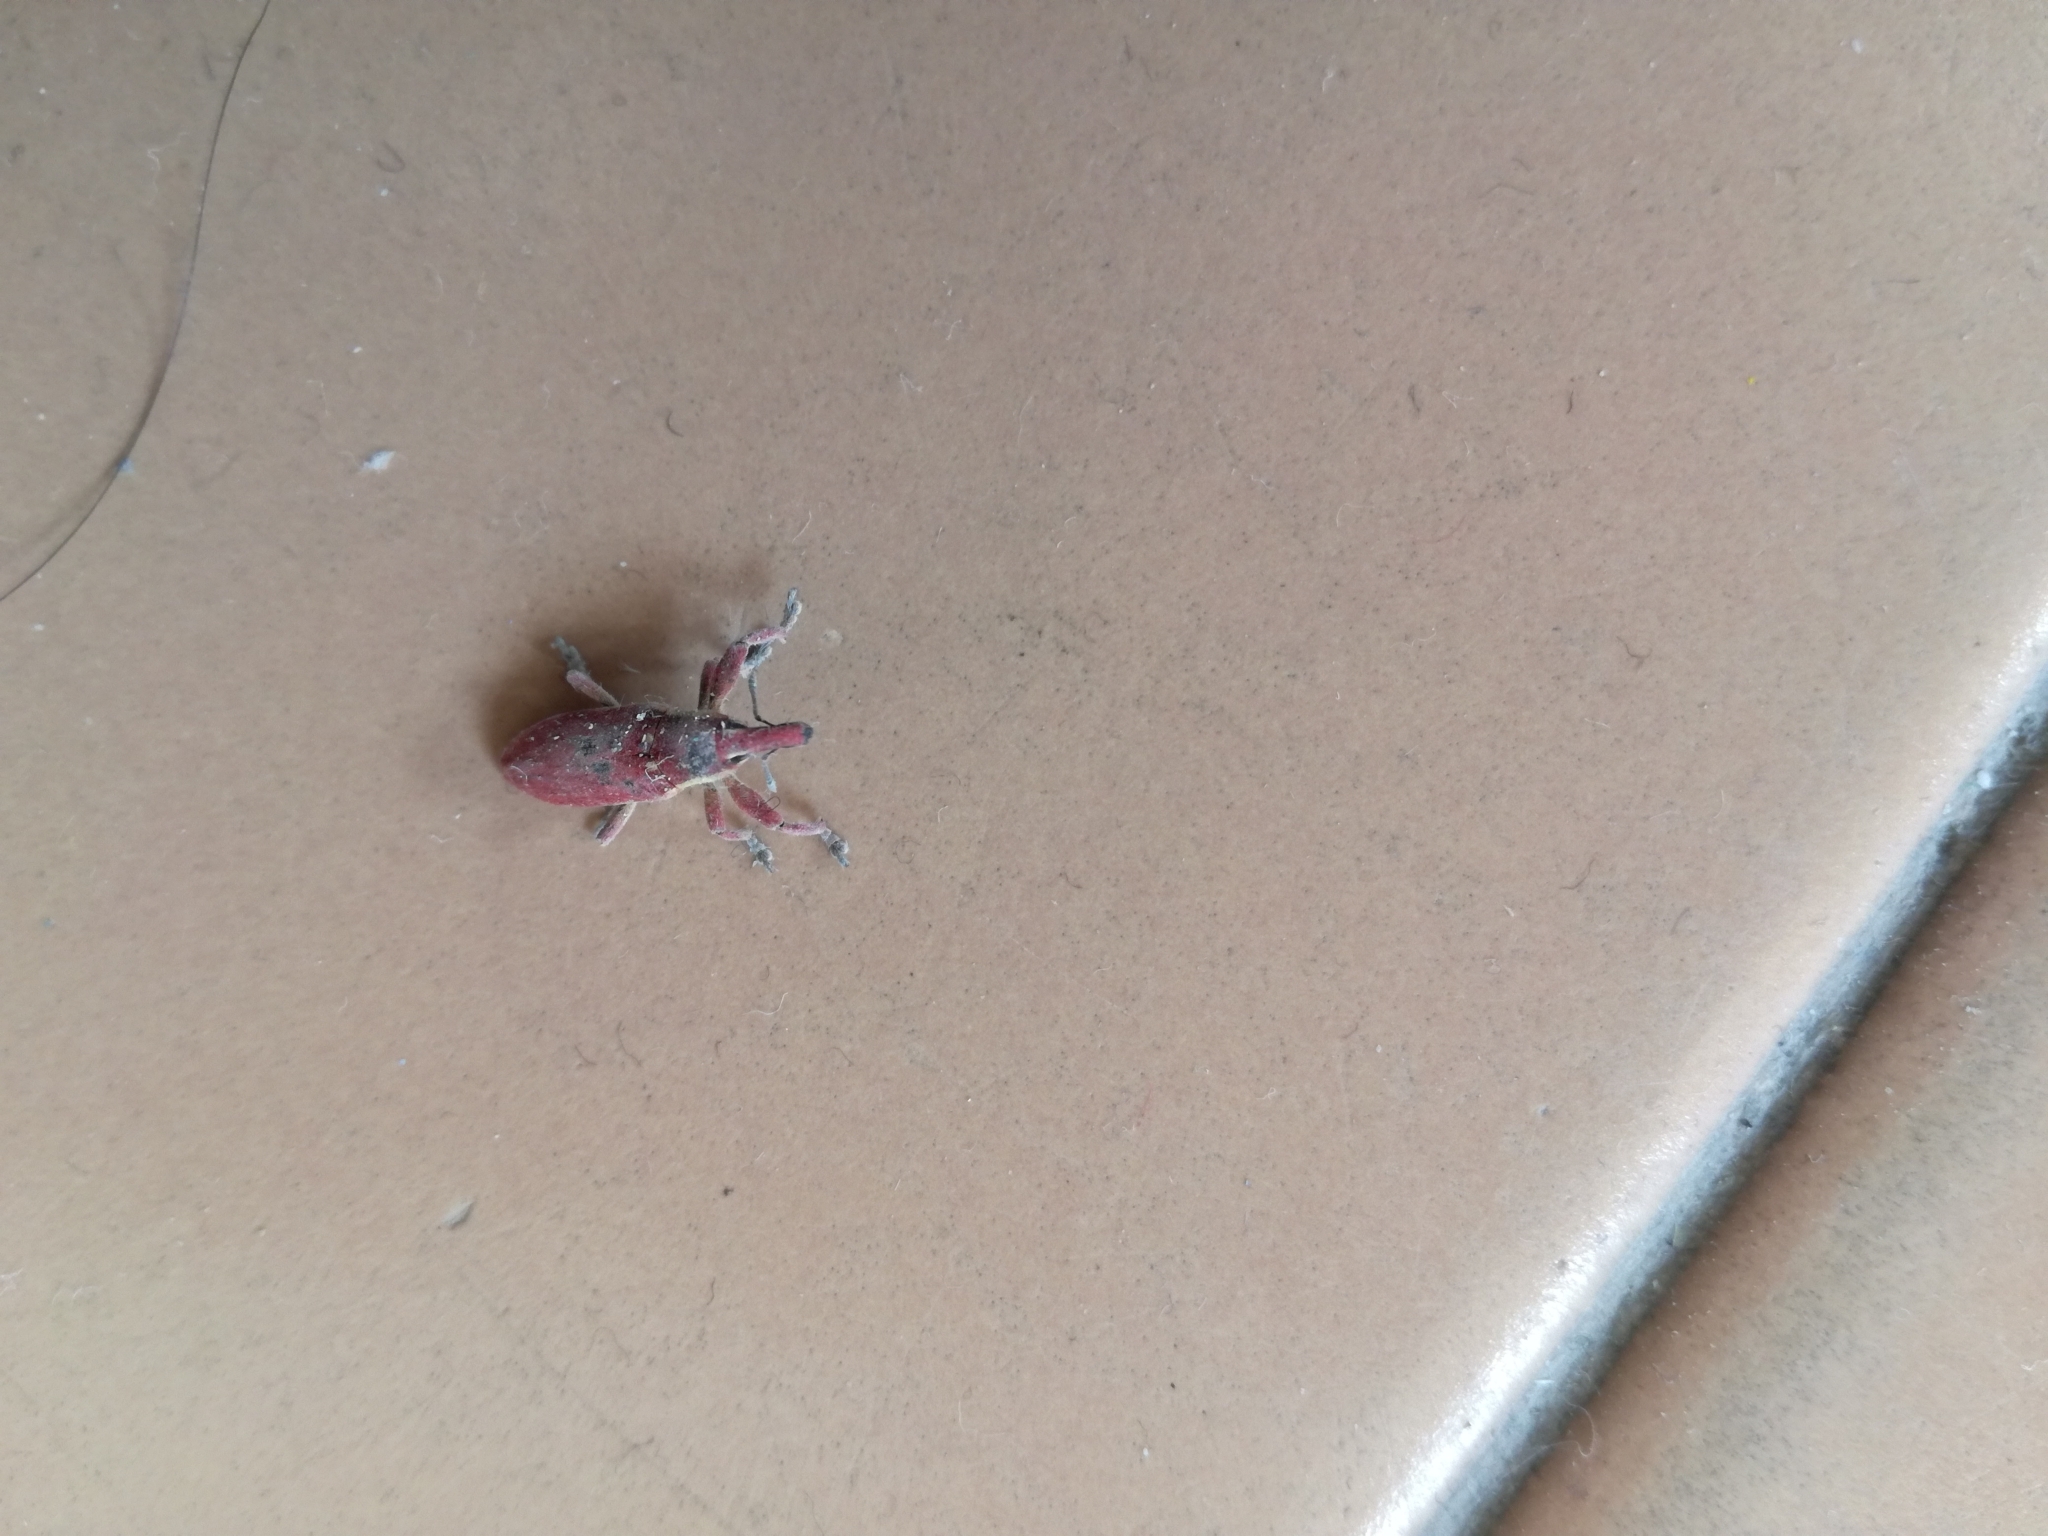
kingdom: Animalia
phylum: Arthropoda
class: Insecta
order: Coleoptera
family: Curculionidae
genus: Lixus
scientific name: Lixus vilis
